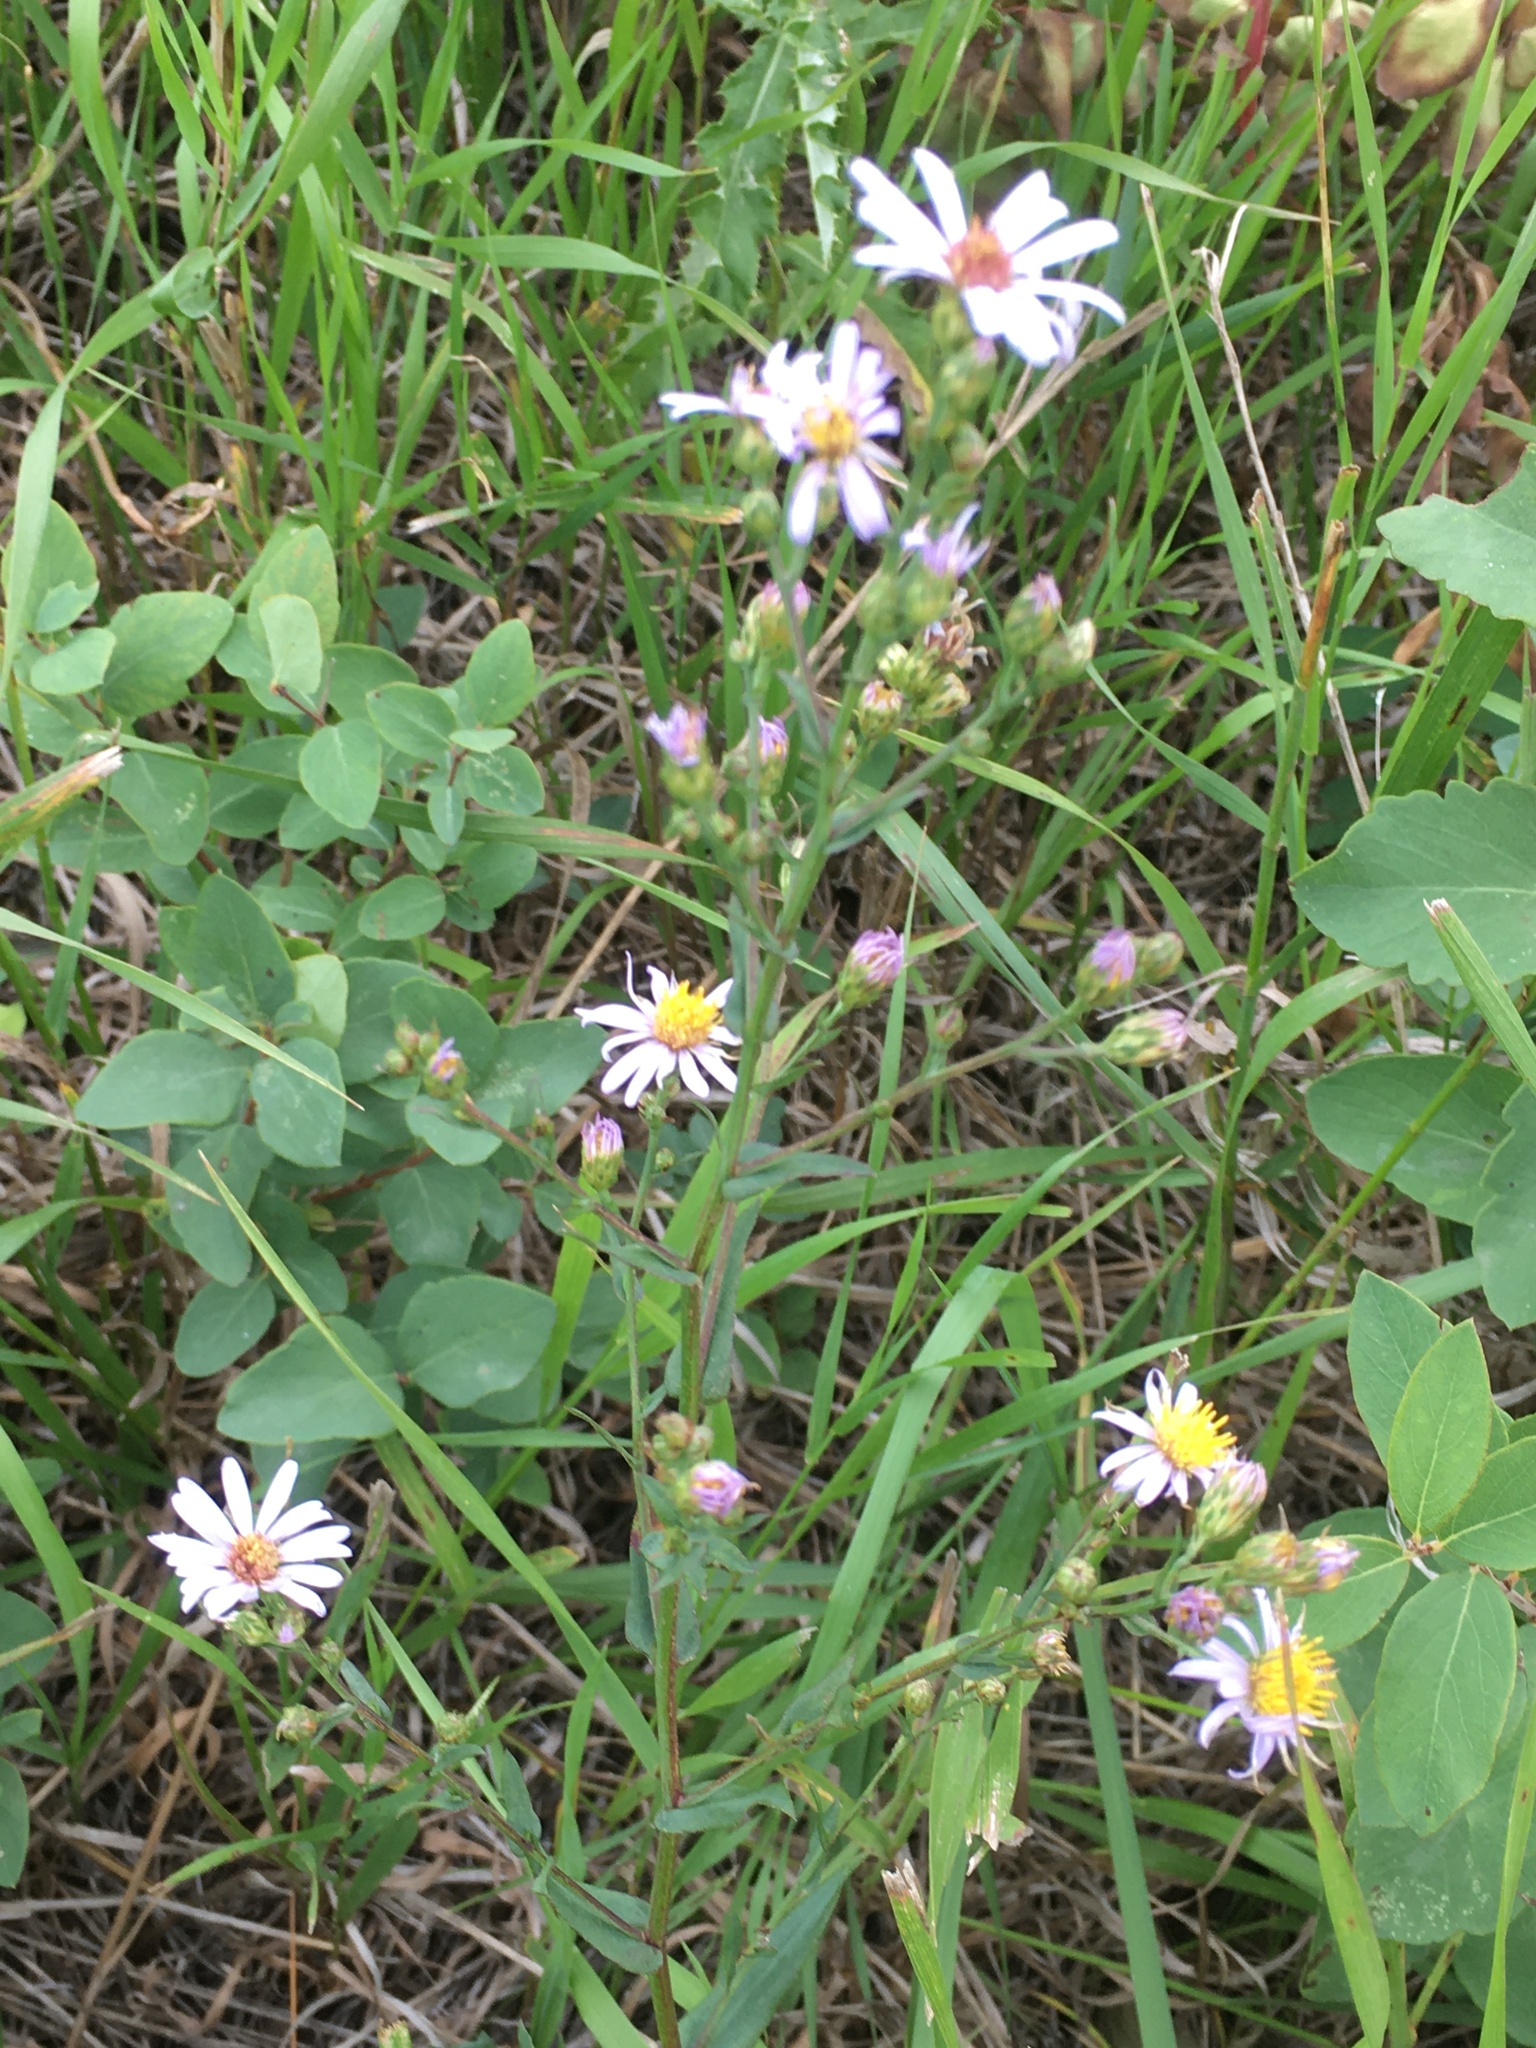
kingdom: Plantae
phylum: Tracheophyta
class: Magnoliopsida
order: Asterales
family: Asteraceae
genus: Symphyotrichum
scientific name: Symphyotrichum laeve
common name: Glaucous aster
